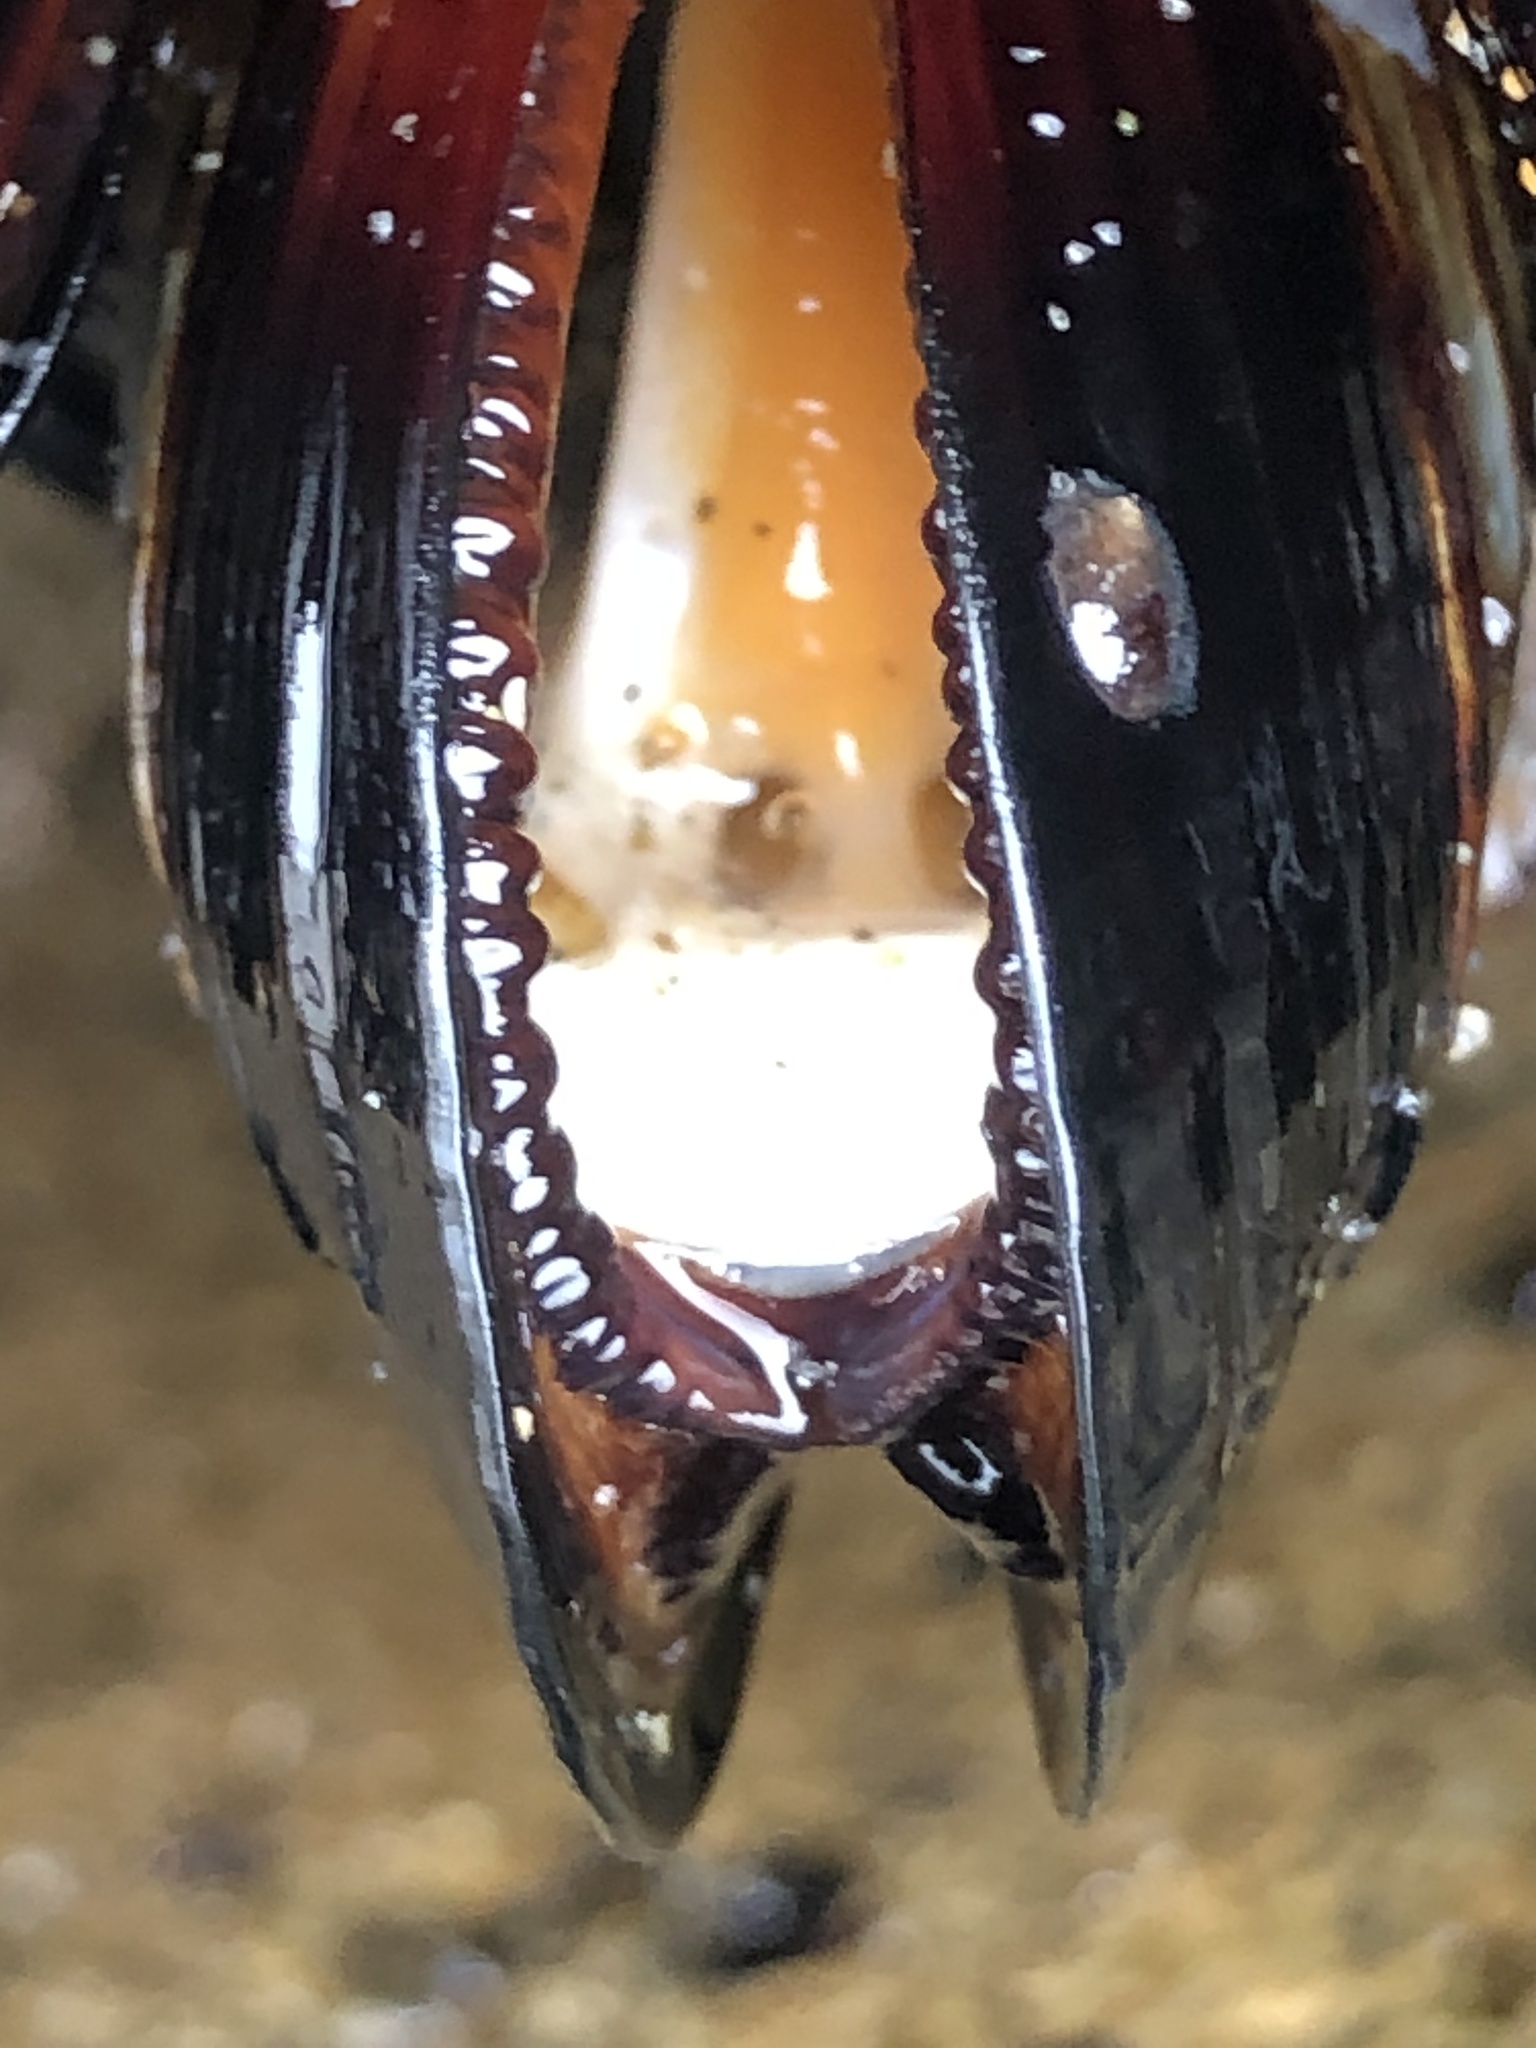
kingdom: Animalia
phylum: Mollusca
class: Bivalvia
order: Mytilida
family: Mytilidae
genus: Mytilus
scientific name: Mytilus californianus
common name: California mussel
